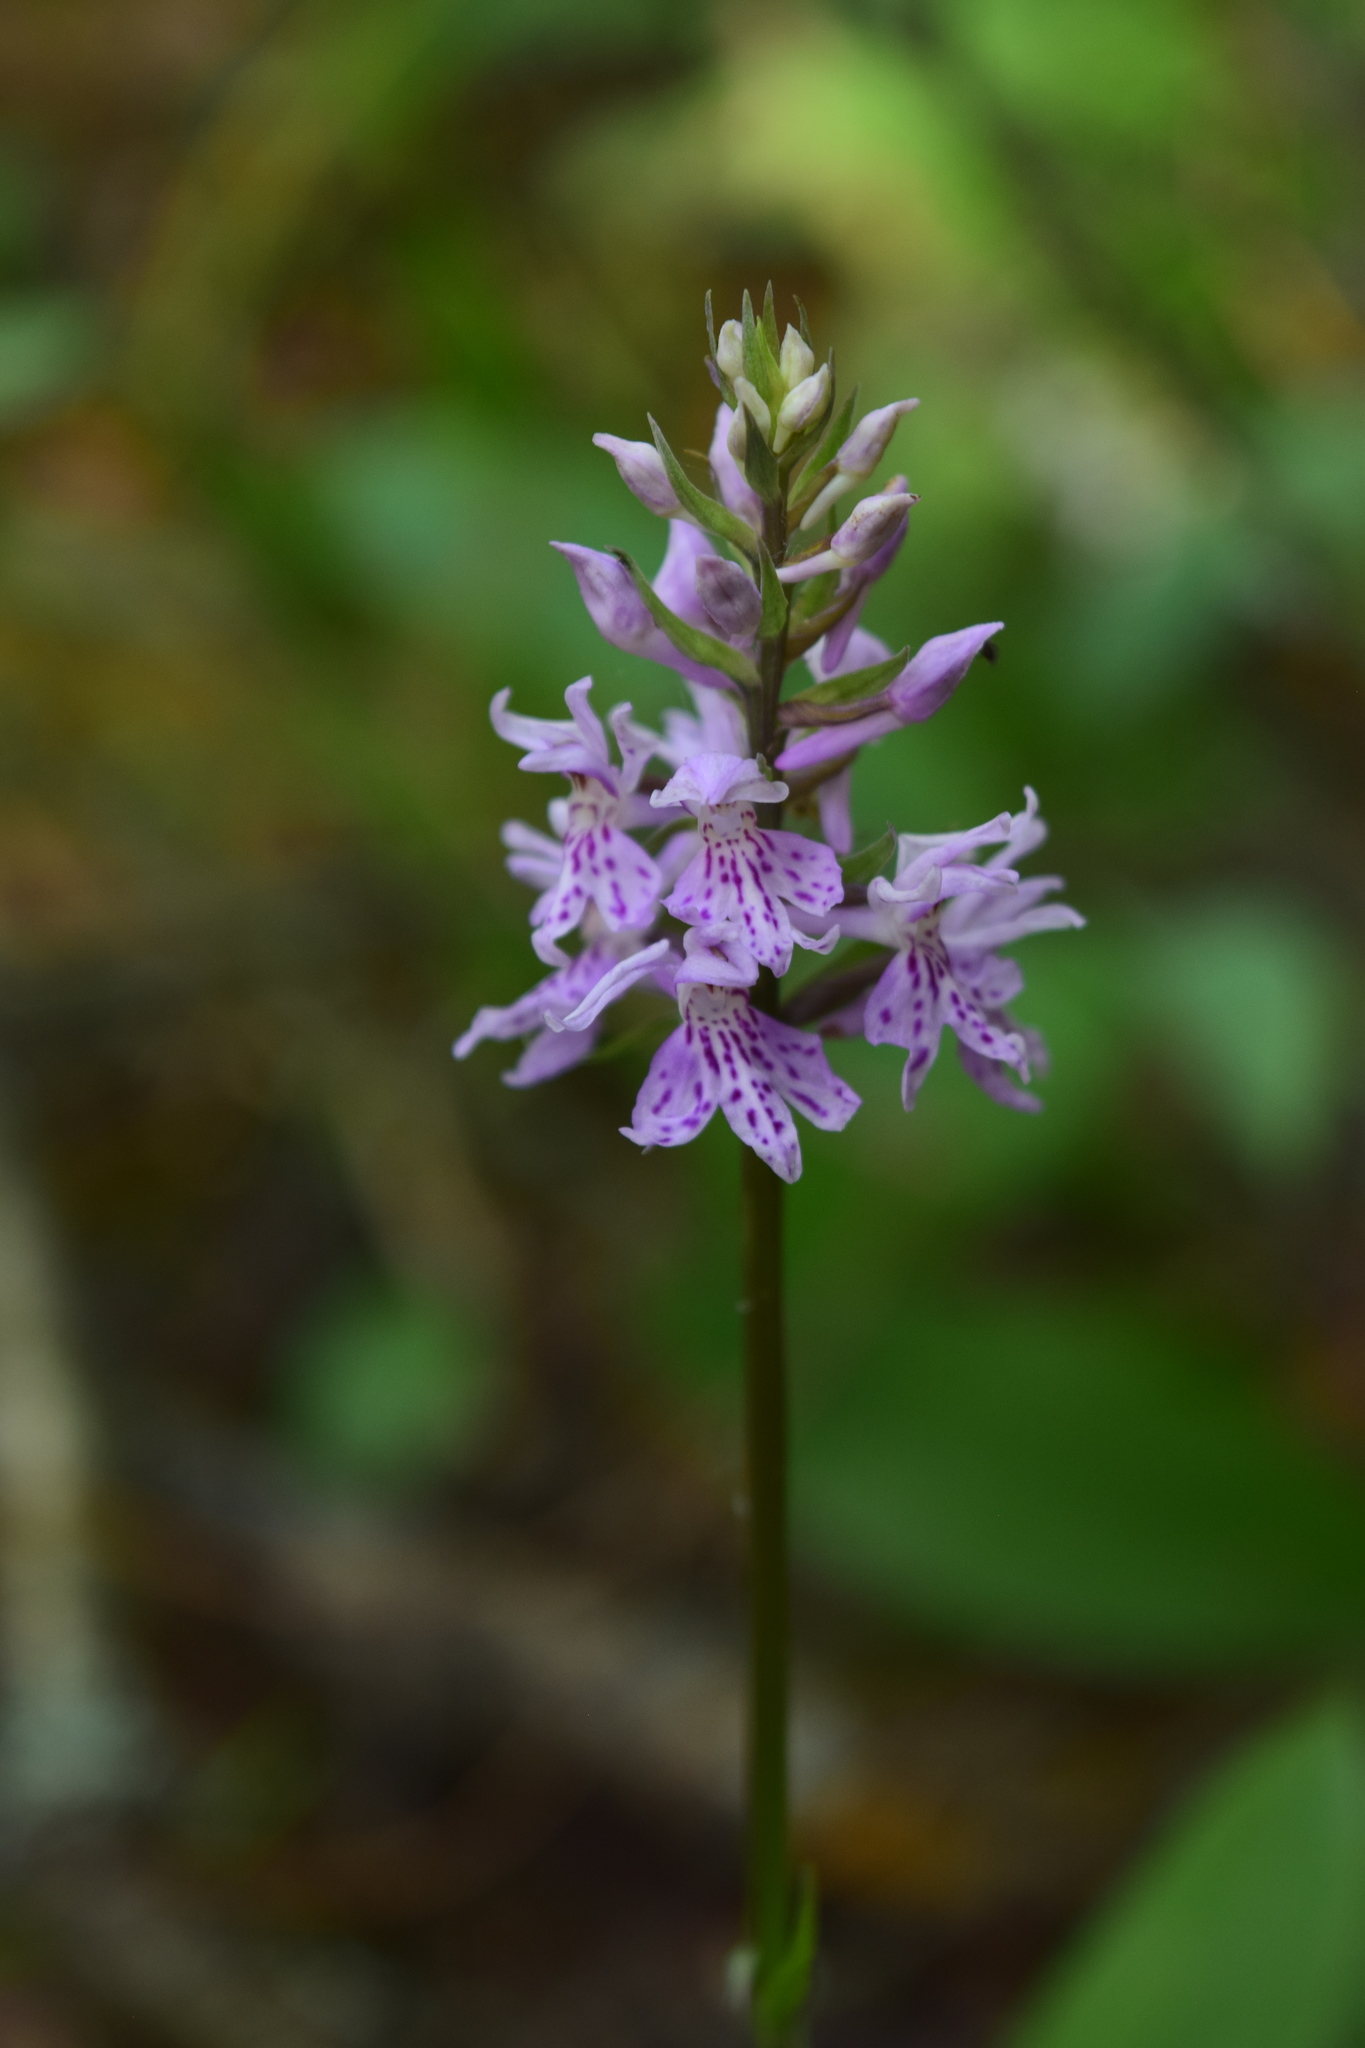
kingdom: Plantae
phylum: Tracheophyta
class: Liliopsida
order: Asparagales
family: Orchidaceae
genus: Dactylorhiza
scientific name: Dactylorhiza maculata
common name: Heath spotted-orchid
